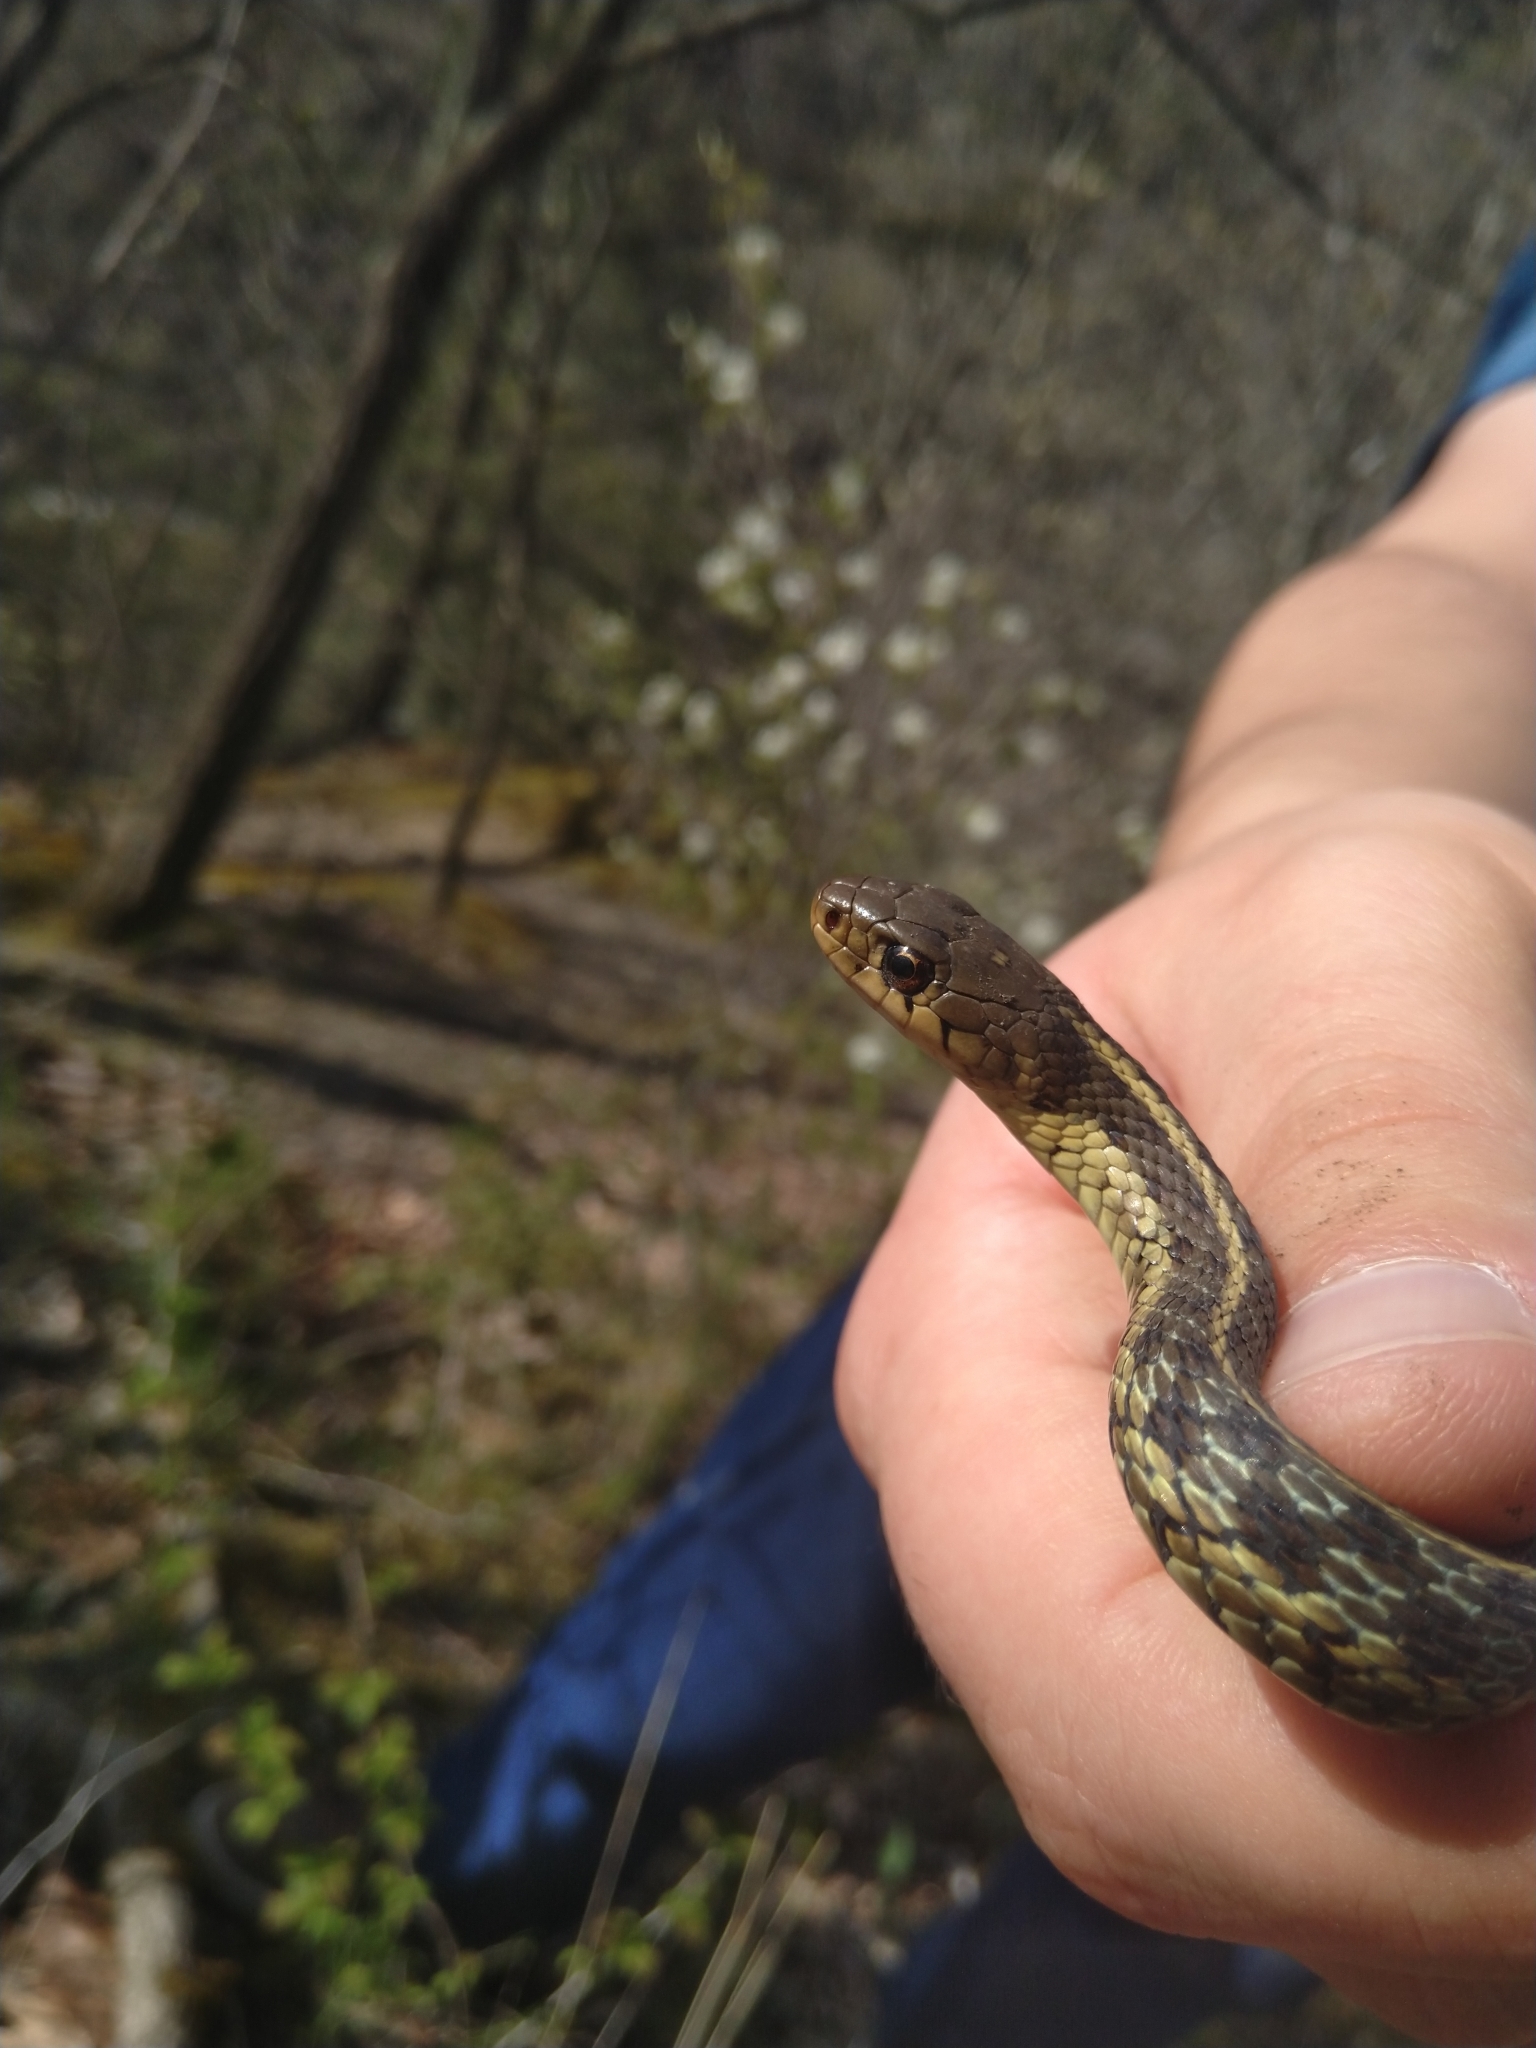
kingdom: Animalia
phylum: Chordata
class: Squamata
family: Colubridae
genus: Thamnophis
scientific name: Thamnophis sirtalis
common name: Common garter snake
